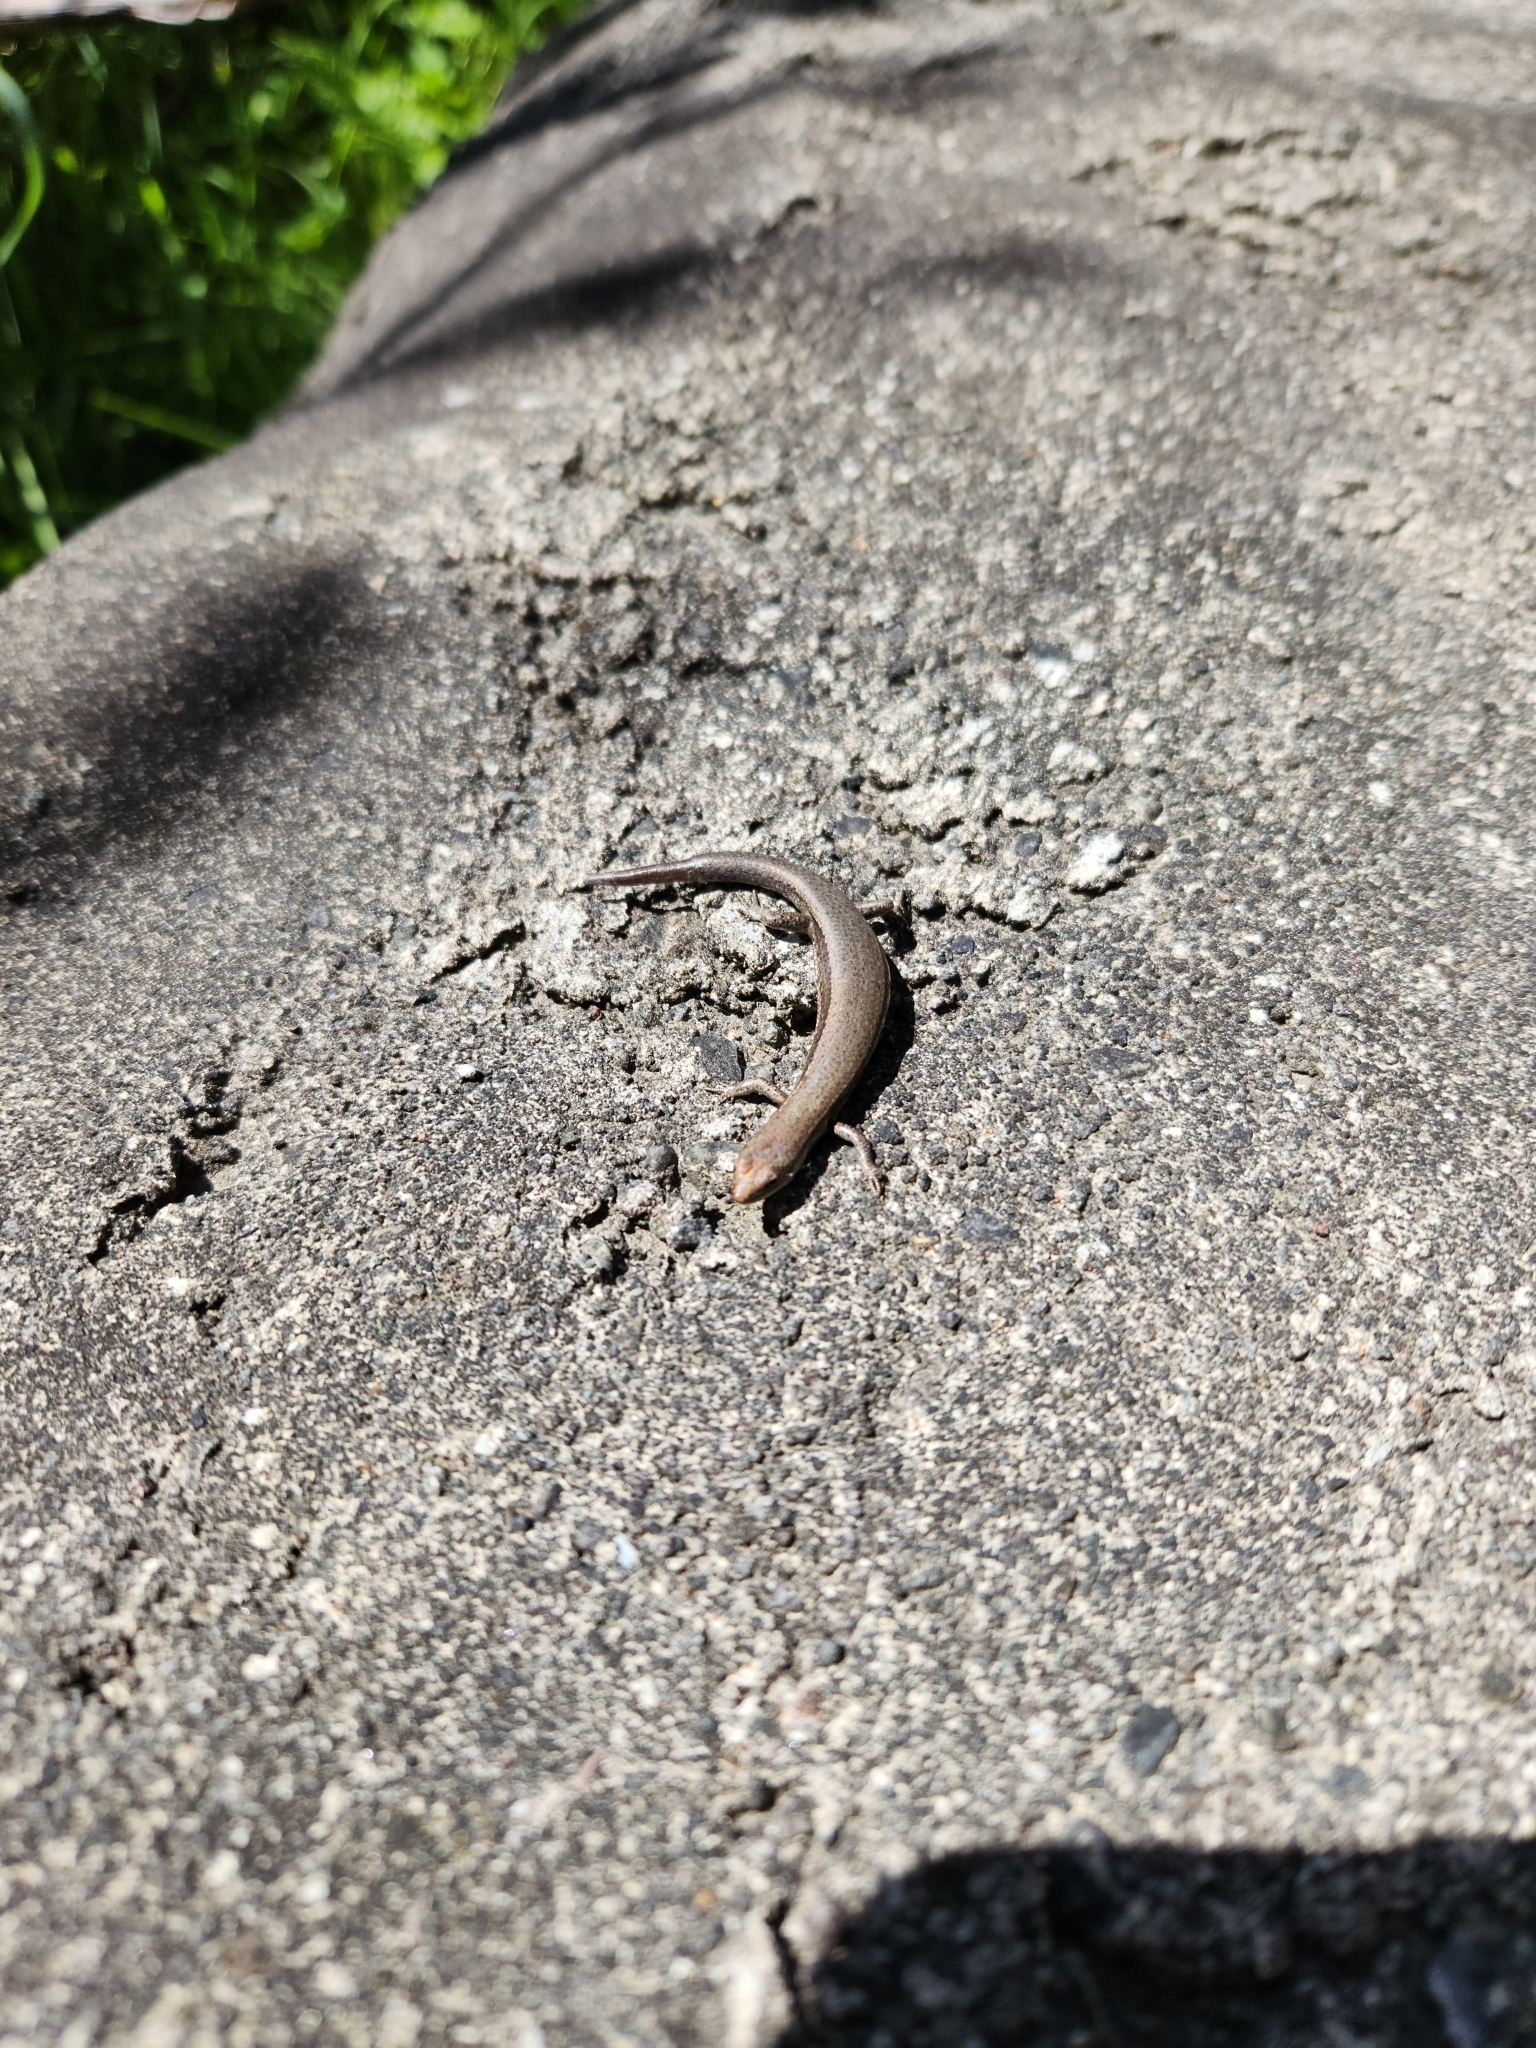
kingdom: Animalia
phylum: Chordata
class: Squamata
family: Scincidae
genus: Lampropholis
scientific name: Lampropholis delicata
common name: Plague skink
